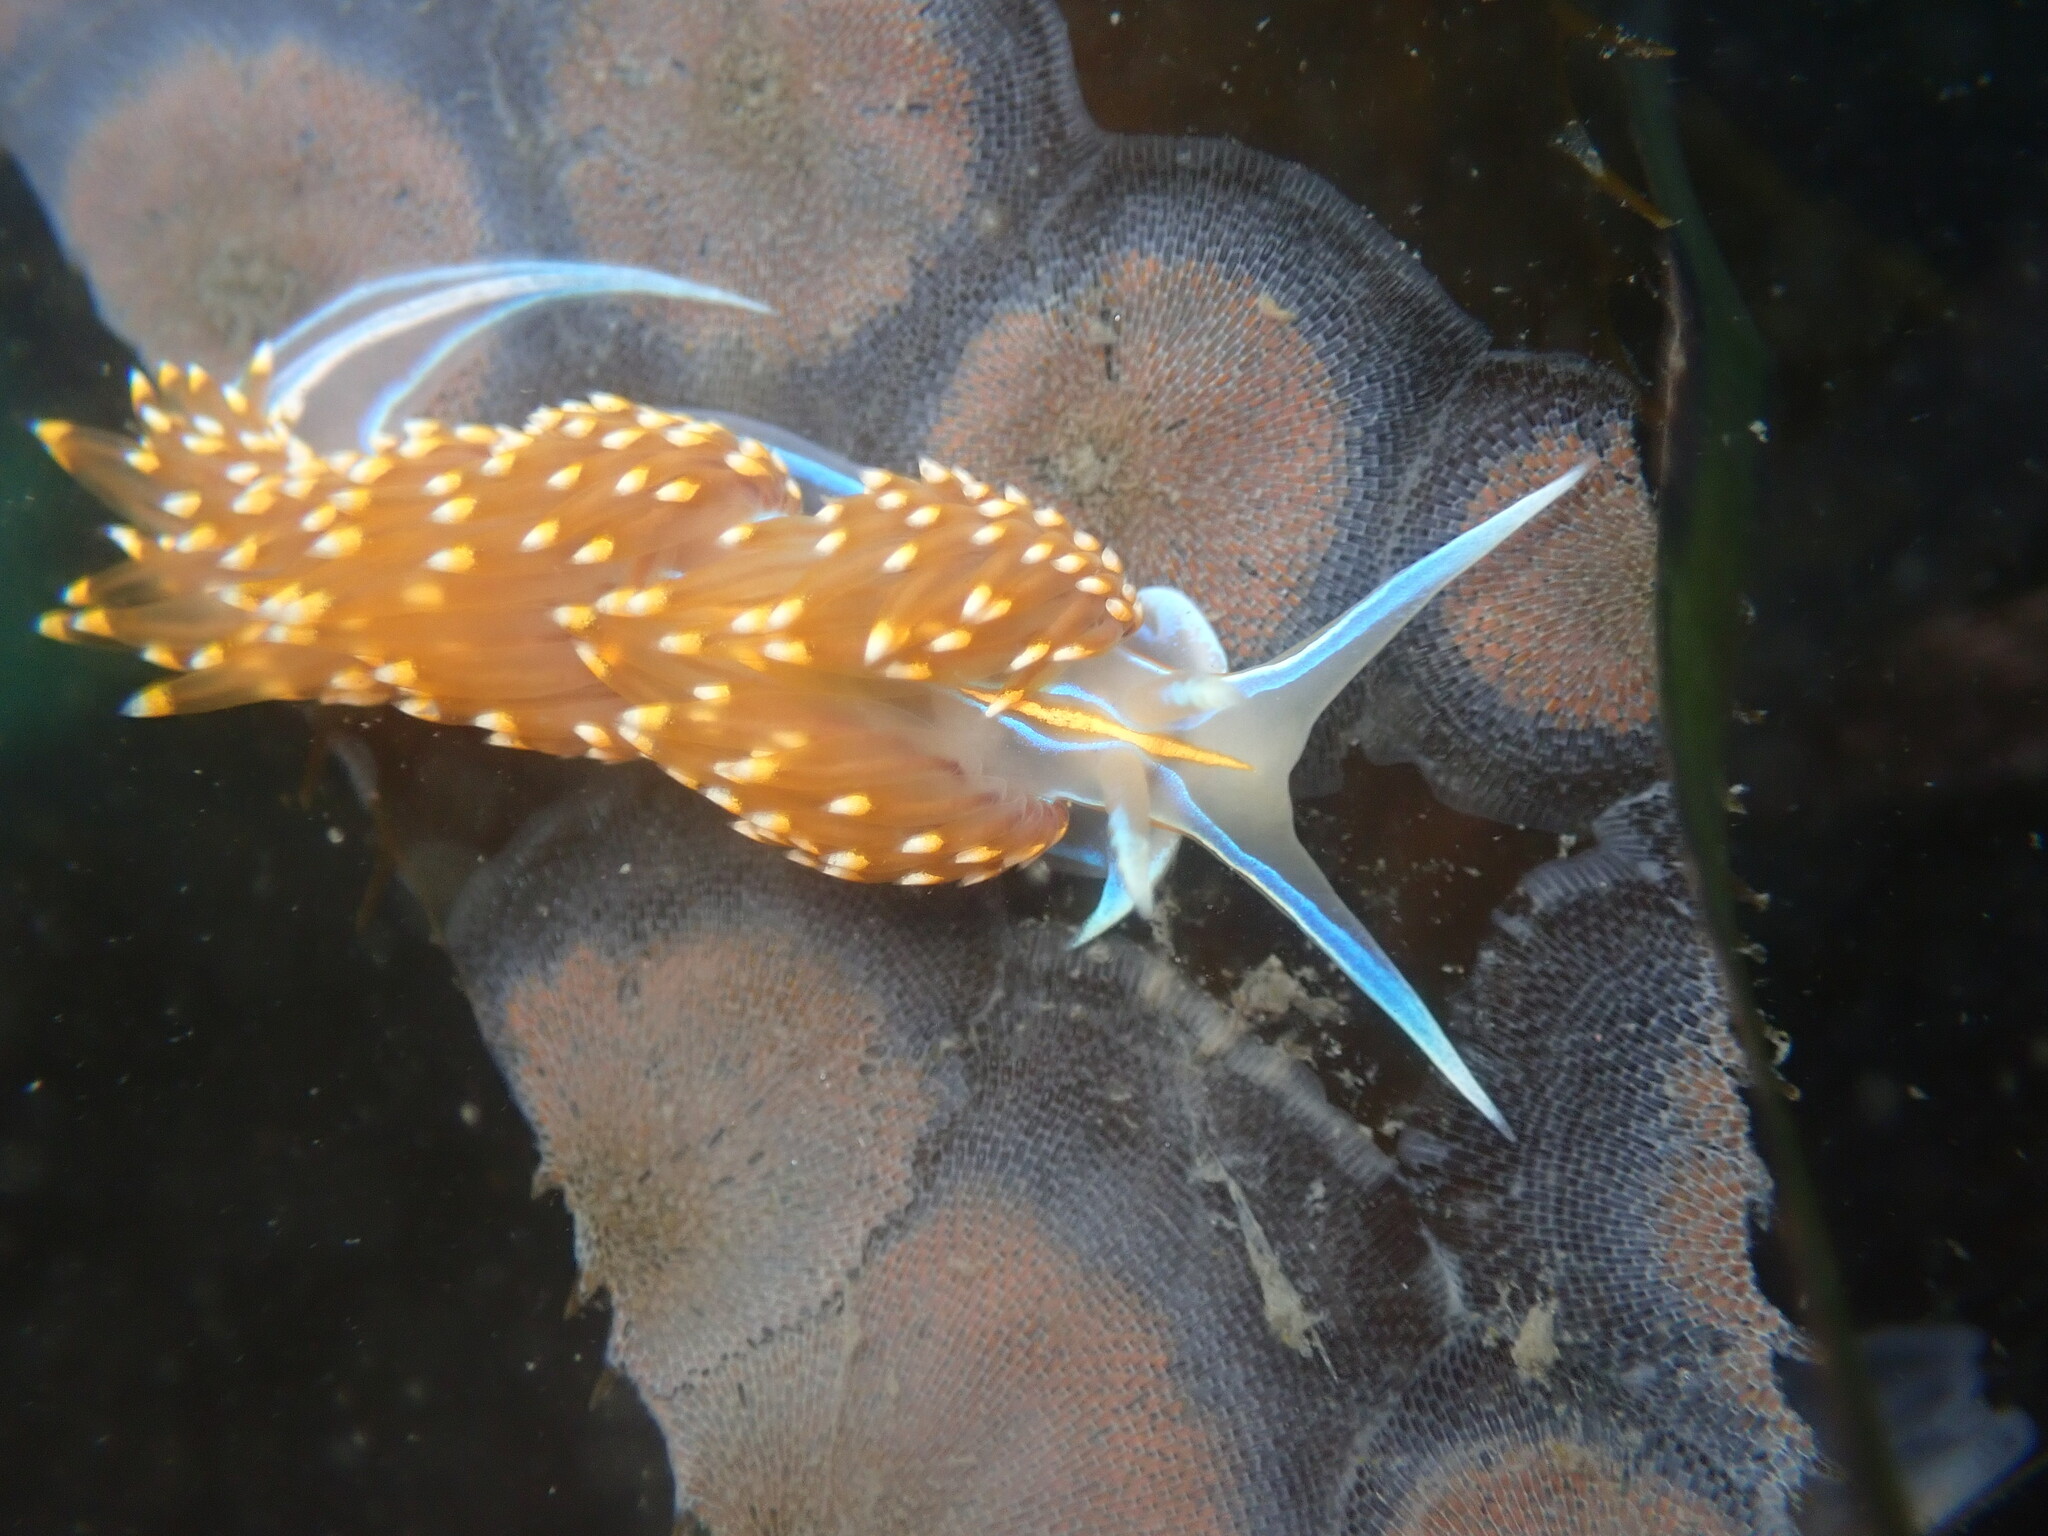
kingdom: Animalia
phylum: Mollusca
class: Gastropoda
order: Nudibranchia
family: Myrrhinidae
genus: Hermissenda
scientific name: Hermissenda opalescens
